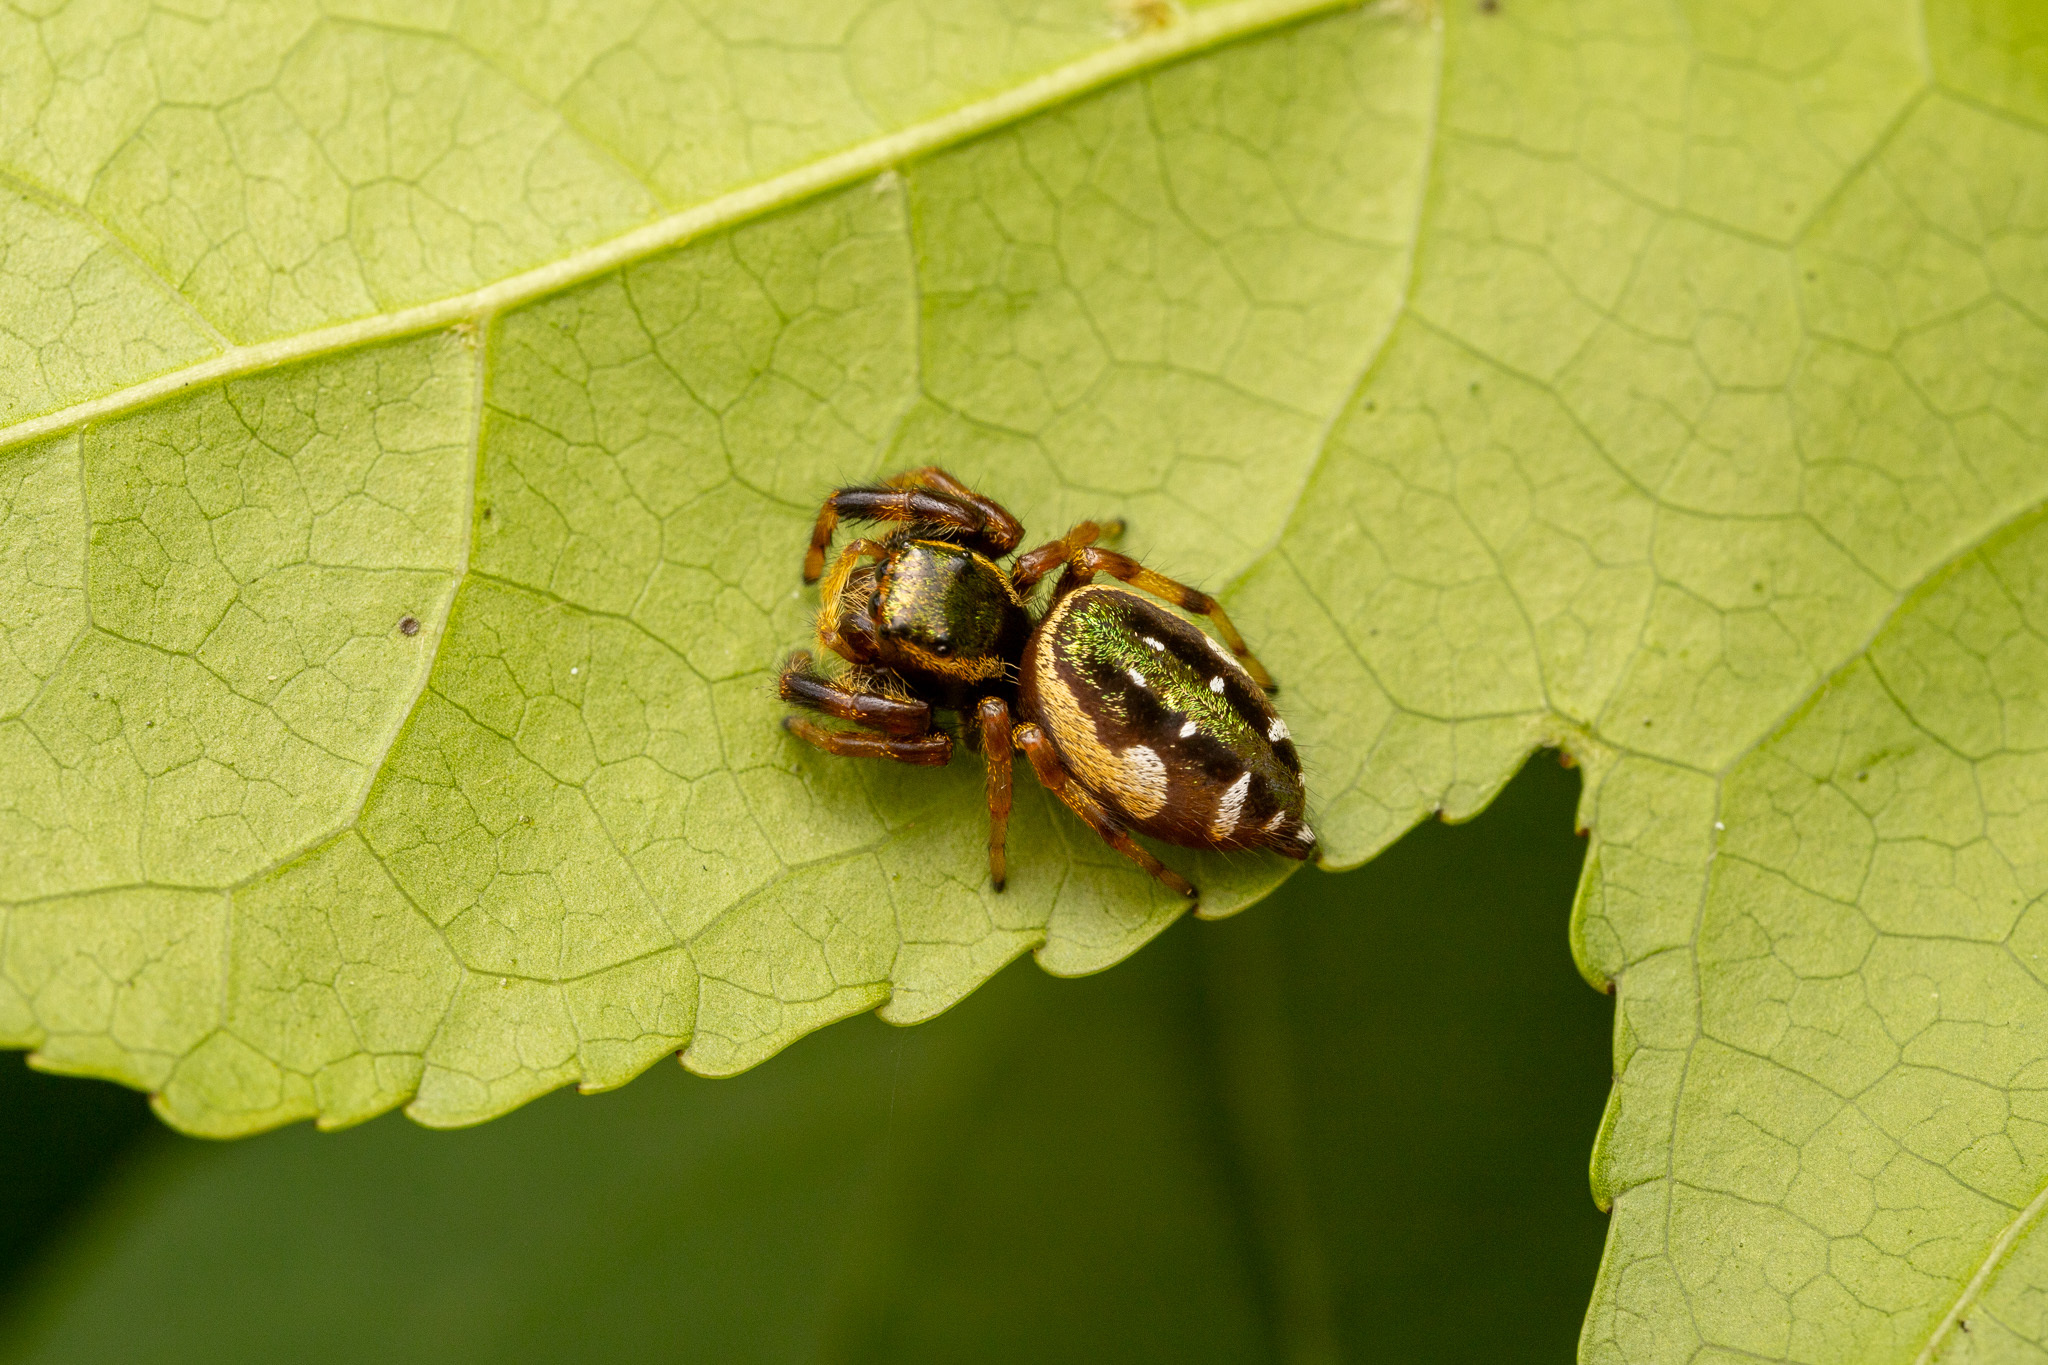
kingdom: Animalia
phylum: Arthropoda
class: Arachnida
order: Araneae
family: Salticidae
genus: Paraphidippus
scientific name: Paraphidippus aurantius
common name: Jumping spiders
